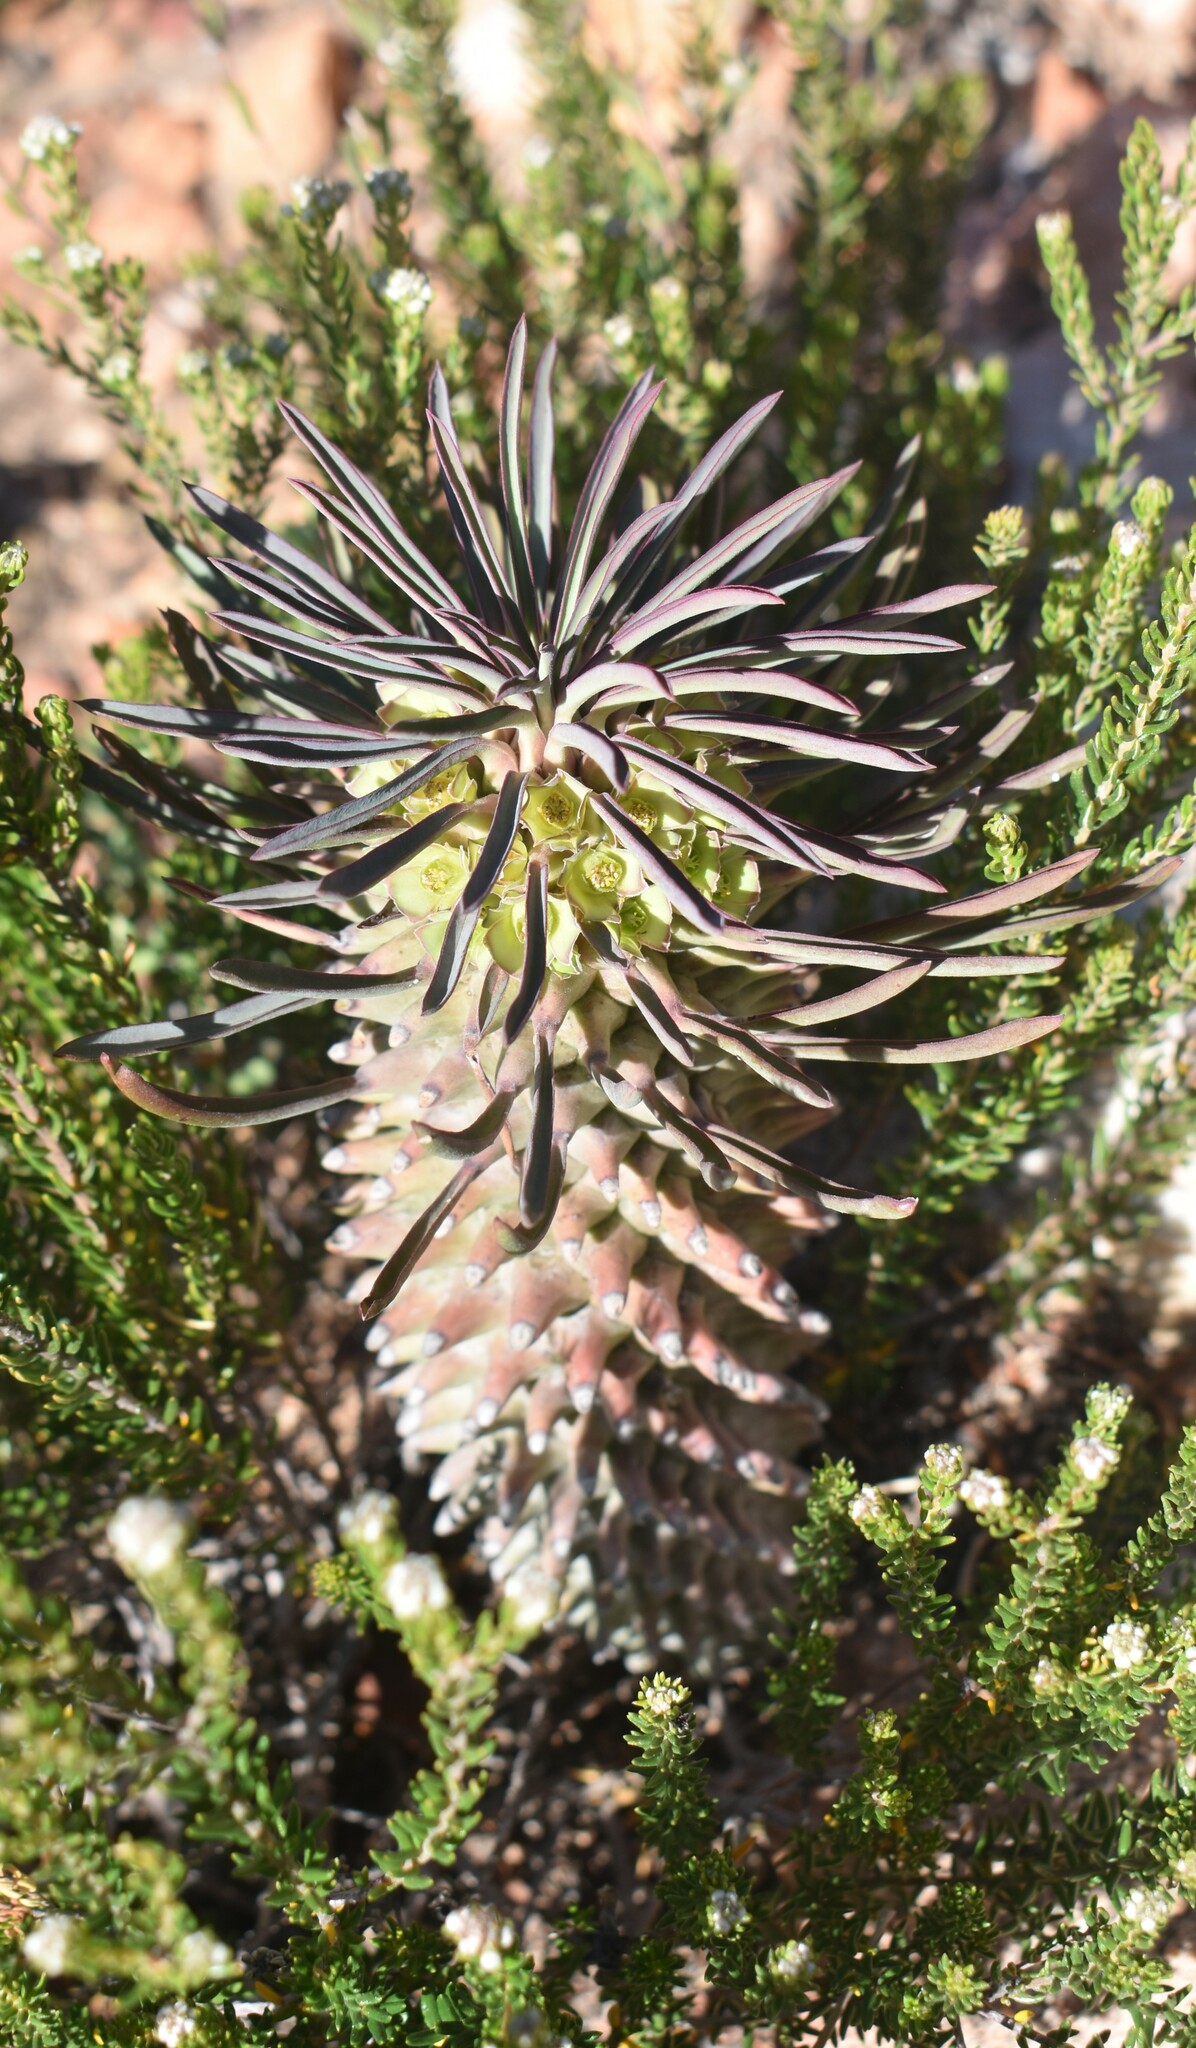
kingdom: Plantae
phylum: Tracheophyta
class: Magnoliopsida
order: Malpighiales
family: Euphorbiaceae
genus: Euphorbia
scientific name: Euphorbia clandestina
